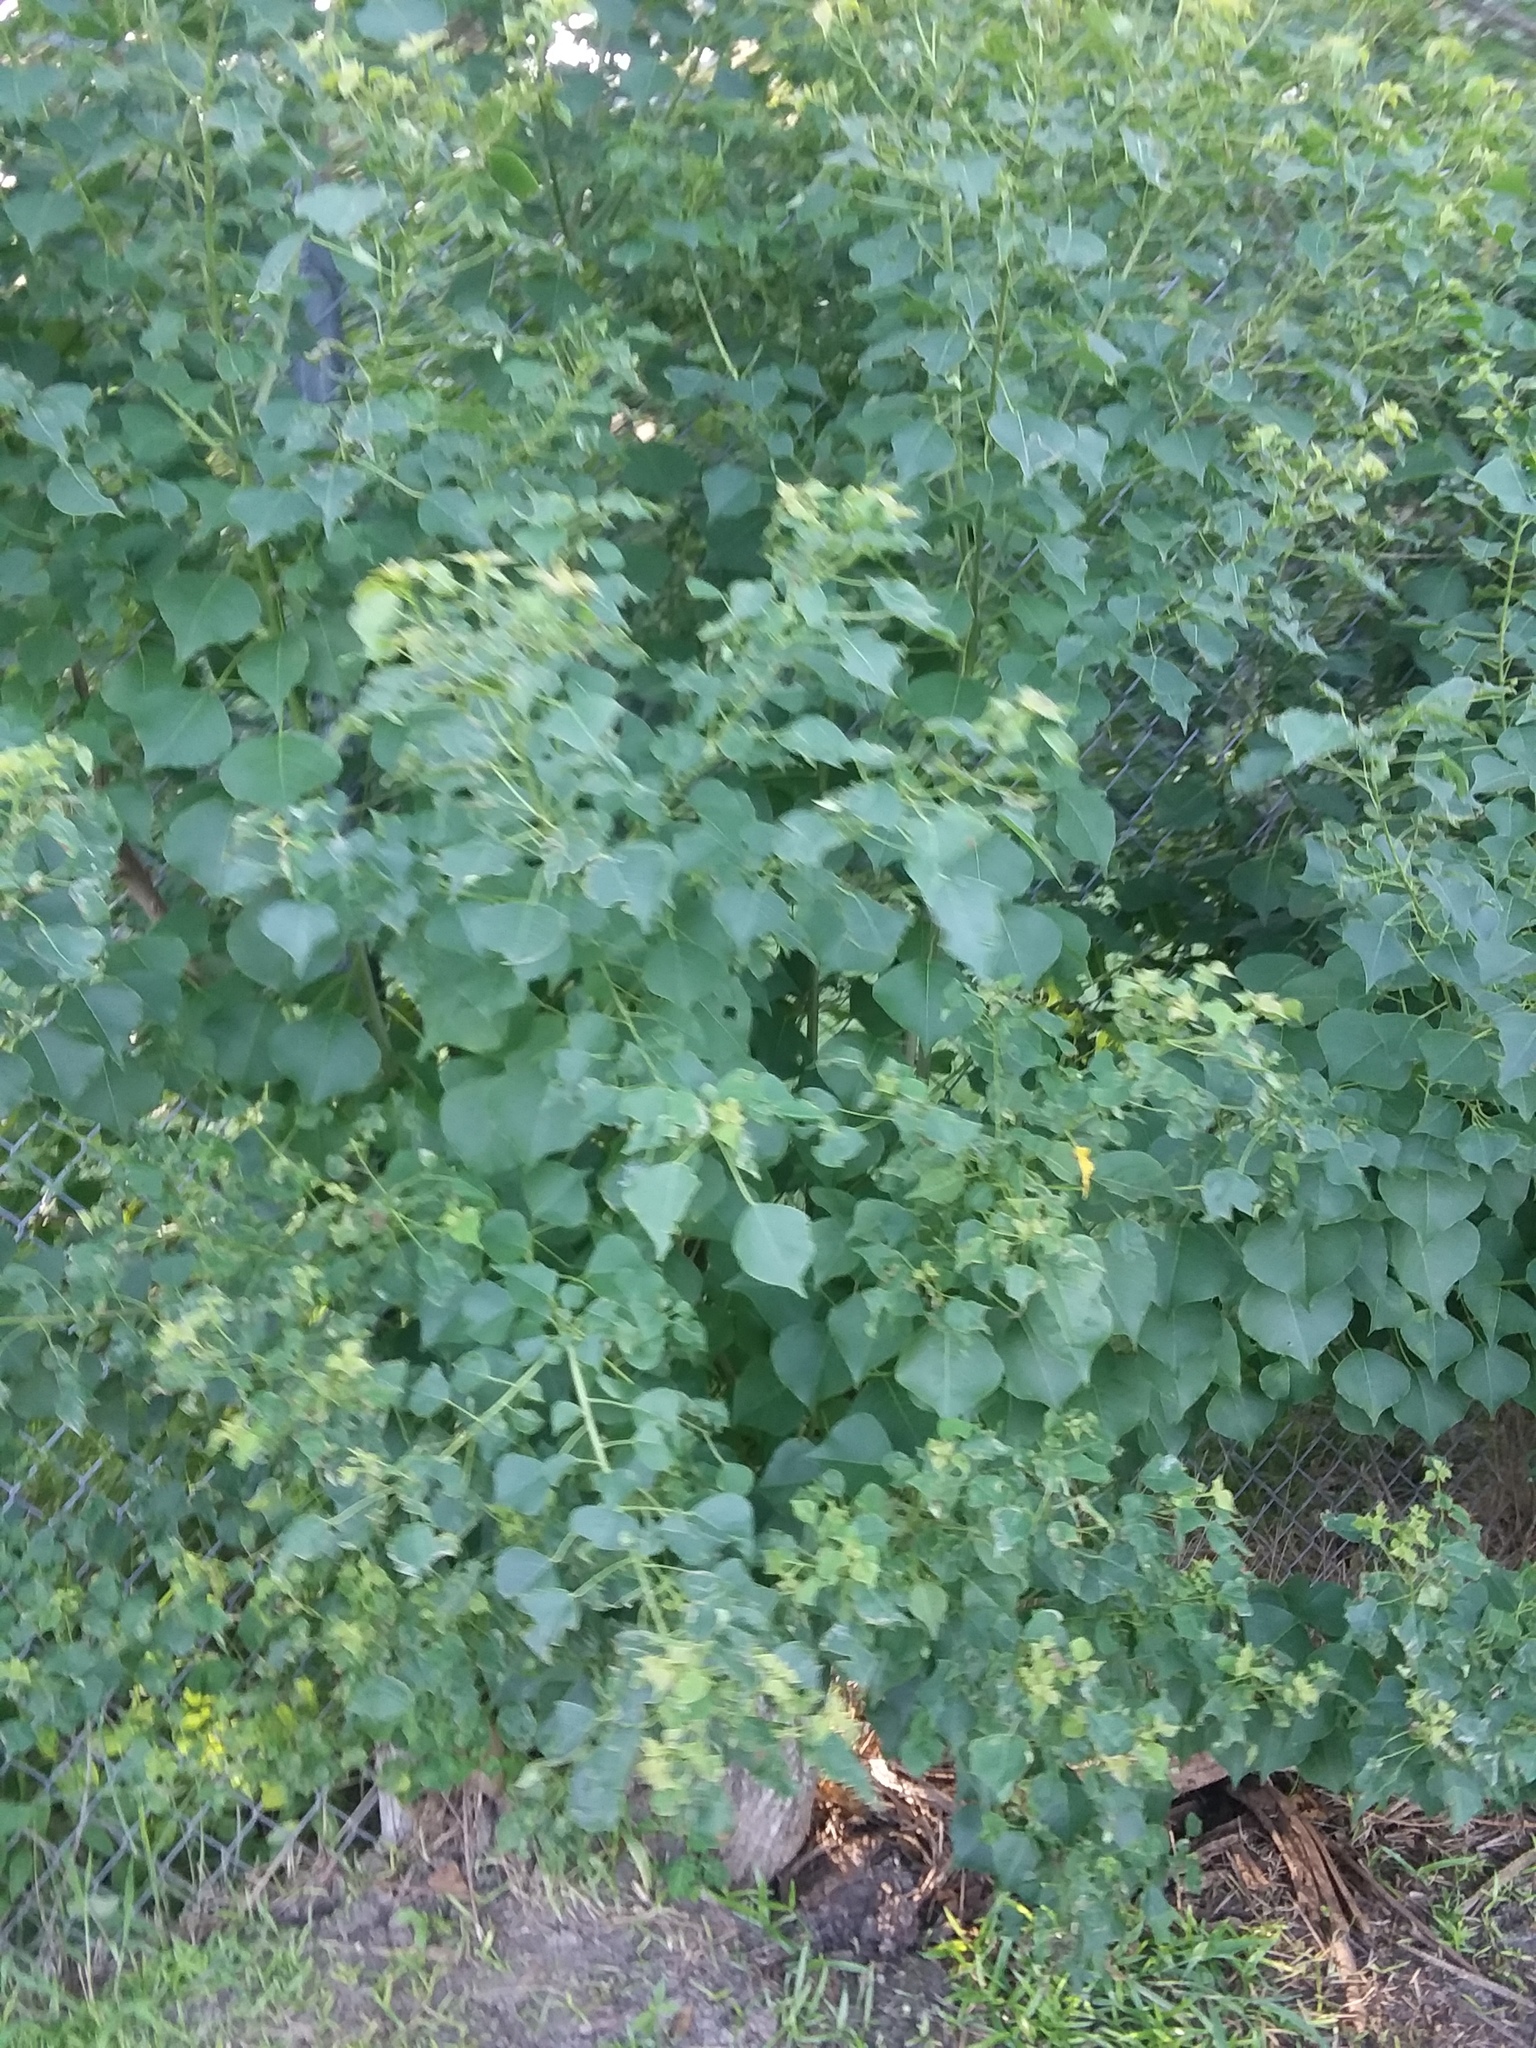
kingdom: Plantae
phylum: Tracheophyta
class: Magnoliopsida
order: Malpighiales
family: Euphorbiaceae
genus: Triadica
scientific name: Triadica sebifera
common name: Chinese tallow
